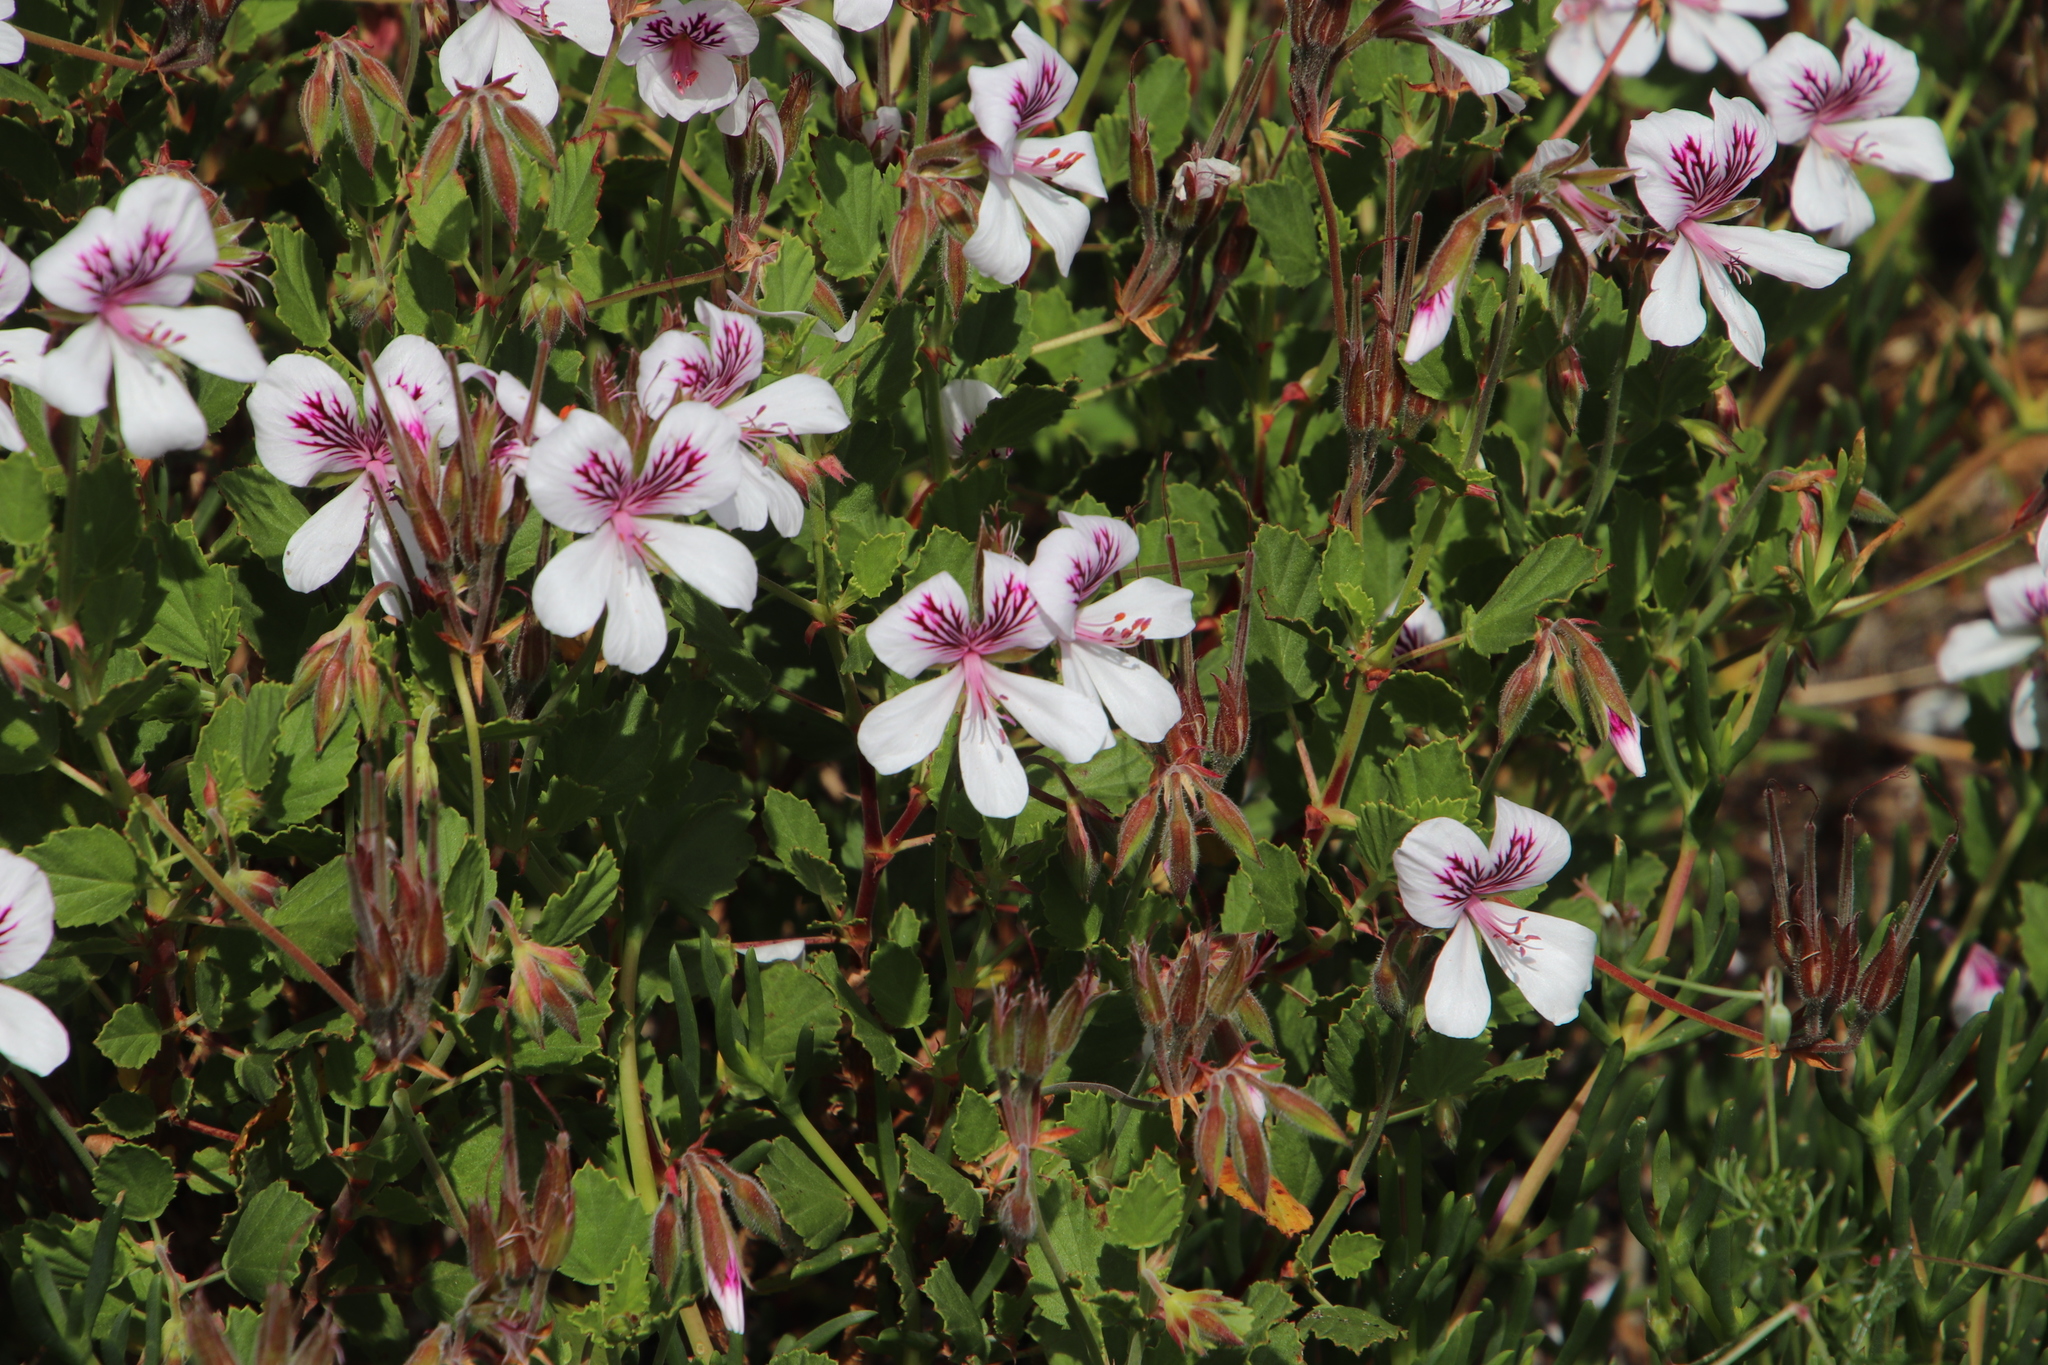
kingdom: Plantae
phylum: Tracheophyta
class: Magnoliopsida
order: Geraniales
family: Geraniaceae
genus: Pelargonium
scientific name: Pelargonium betulinum
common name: Birch-leaf pelargonium
